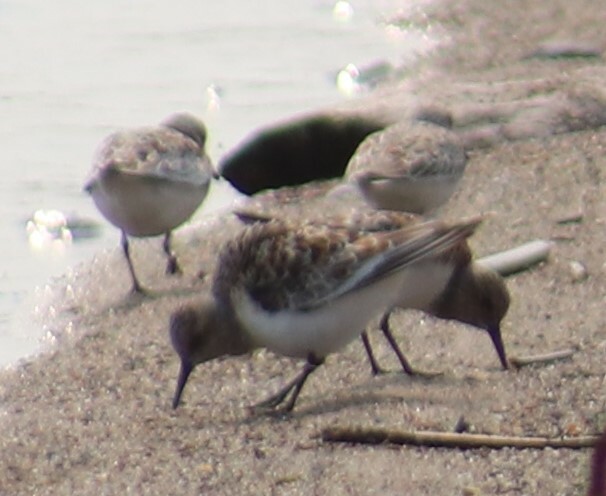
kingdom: Animalia
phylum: Chordata
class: Aves
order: Charadriiformes
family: Scolopacidae
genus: Calidris
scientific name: Calidris alba
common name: Sanderling
